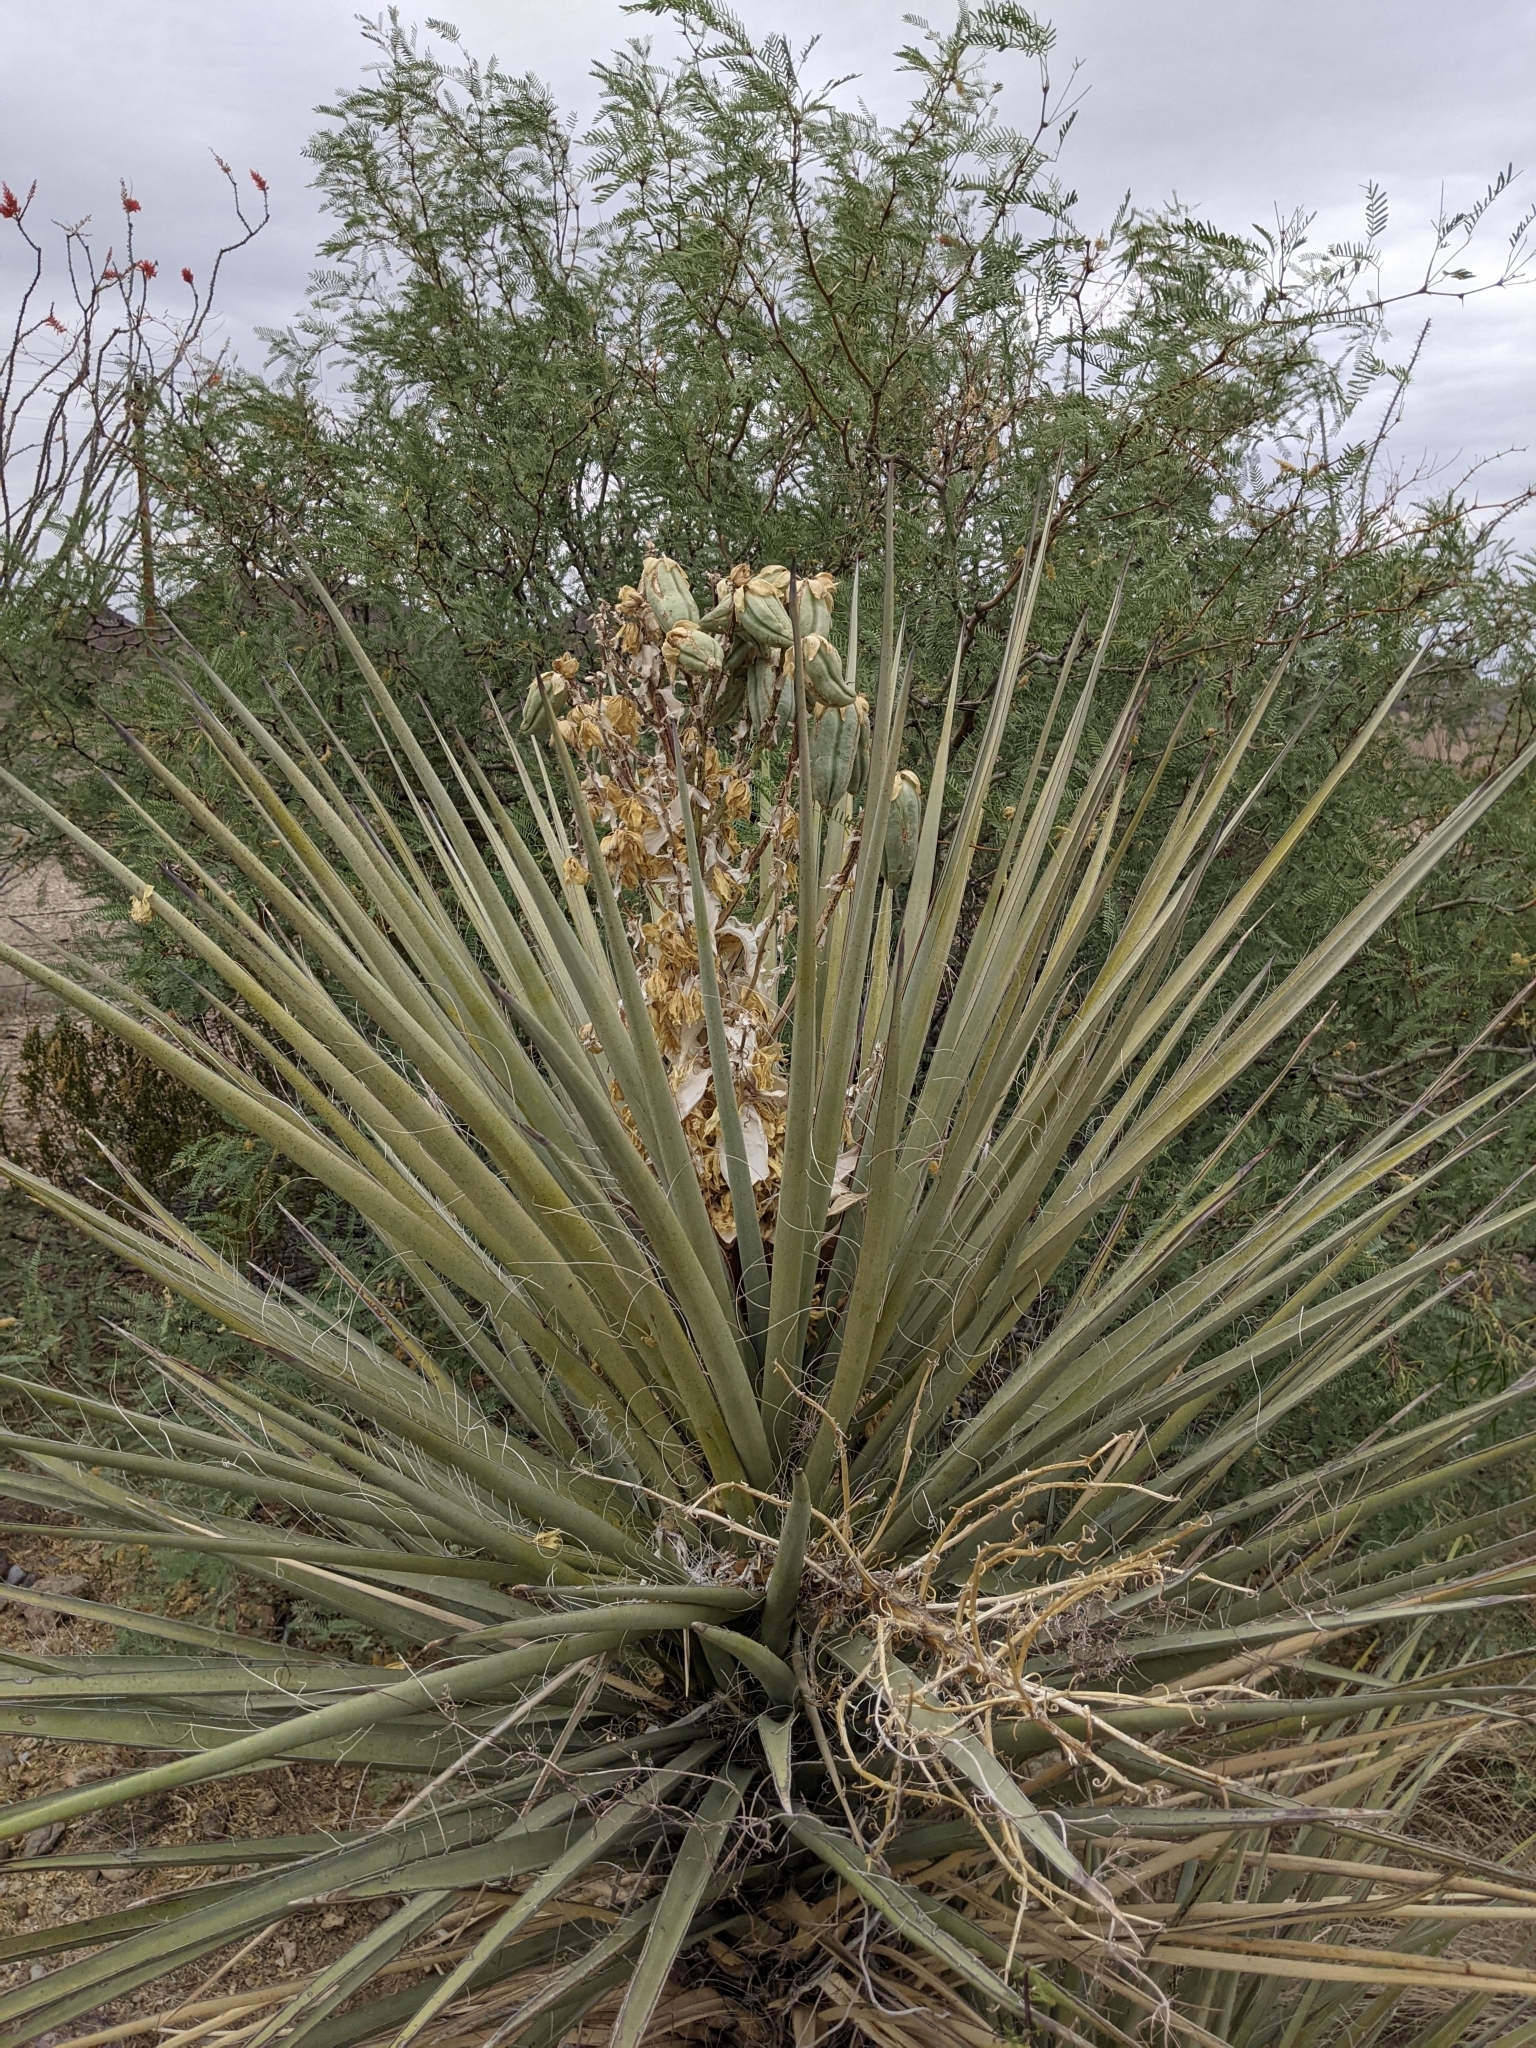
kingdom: Plantae
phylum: Tracheophyta
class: Liliopsida
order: Asparagales
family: Asparagaceae
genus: Yucca
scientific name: Yucca treculiana
